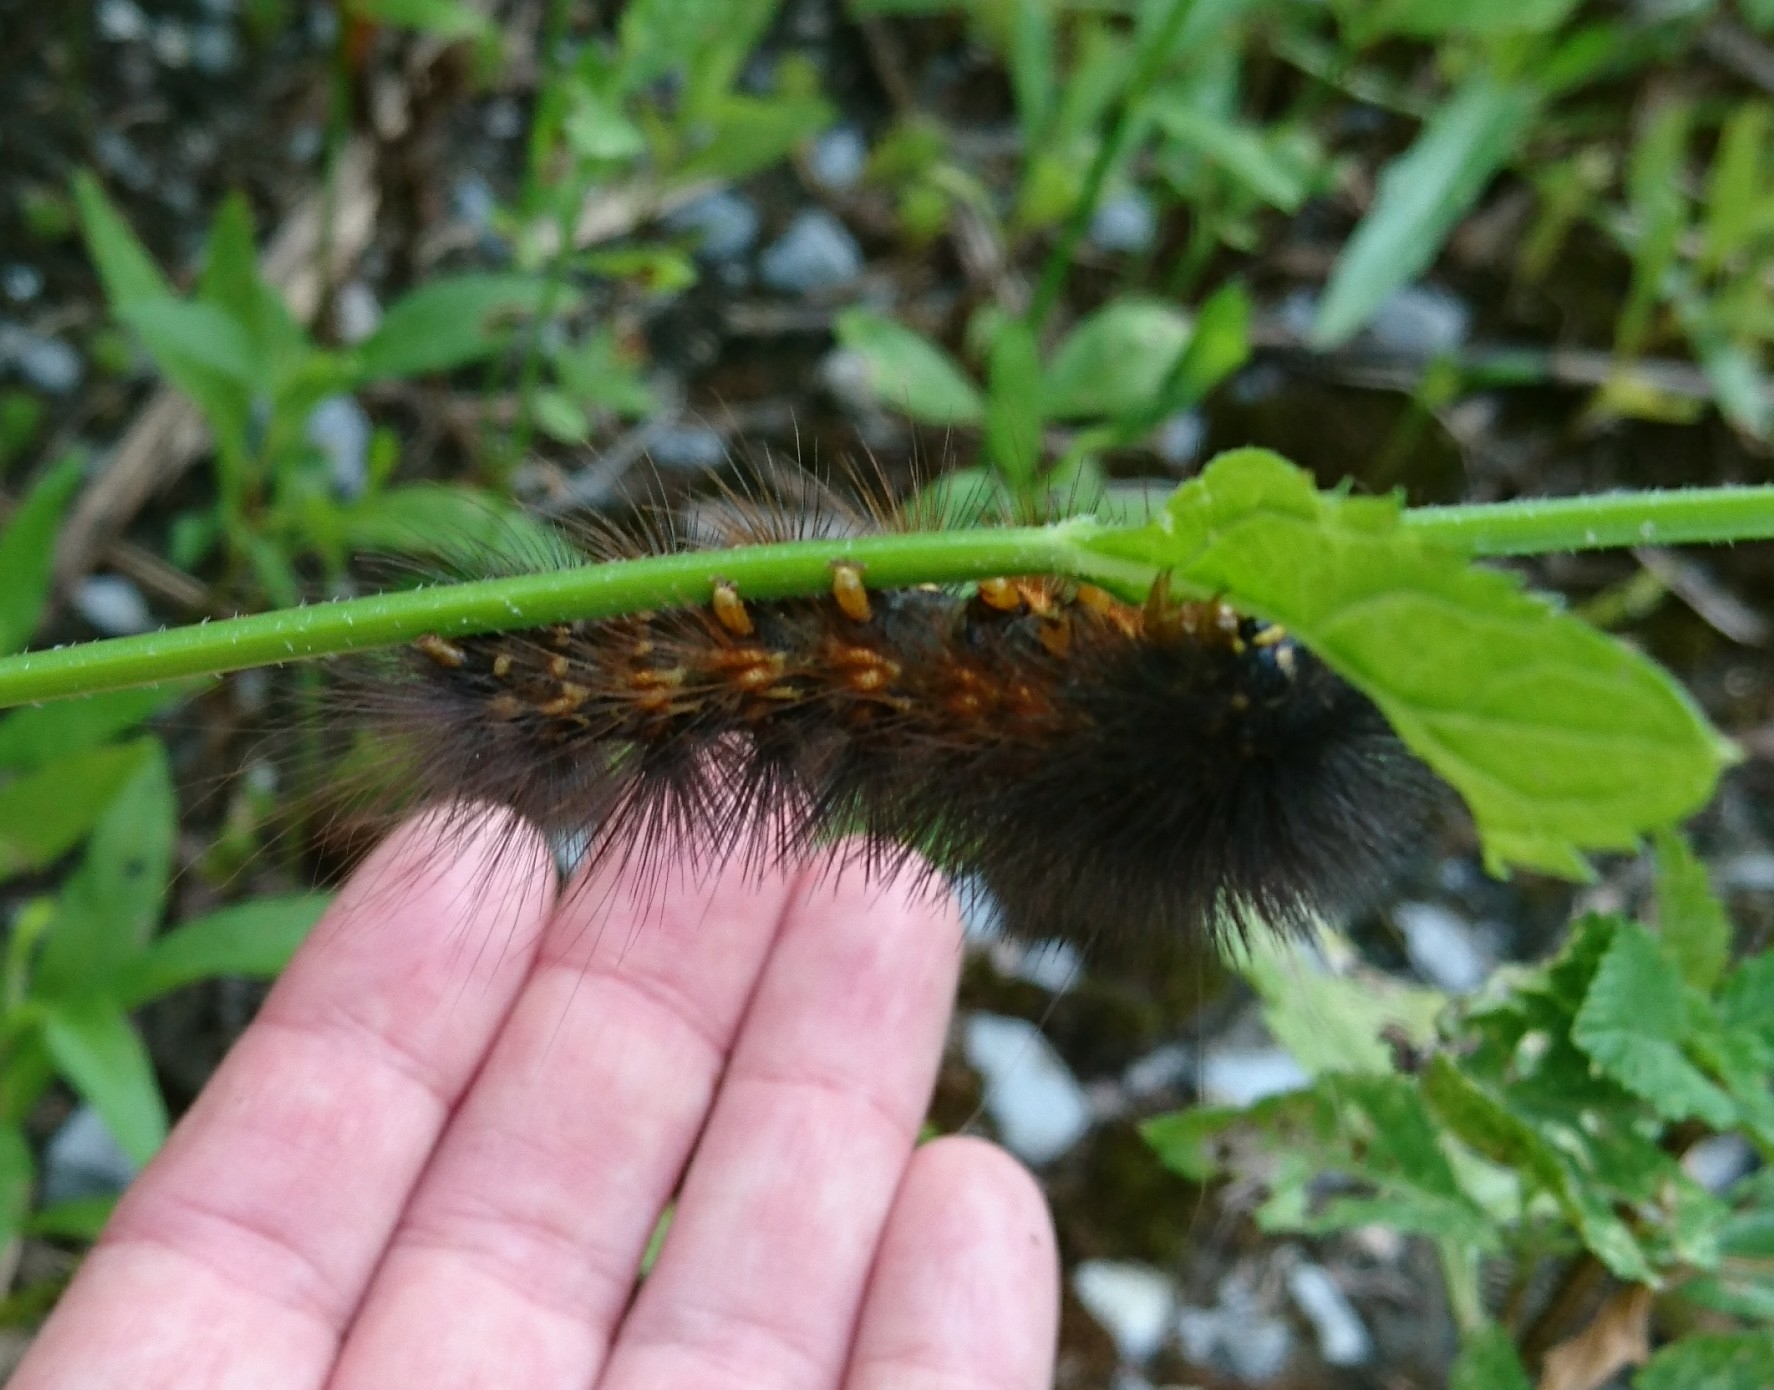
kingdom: Animalia
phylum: Arthropoda
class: Insecta
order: Lepidoptera
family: Erebidae
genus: Estigmene
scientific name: Estigmene acrea
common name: Salt marsh moth
